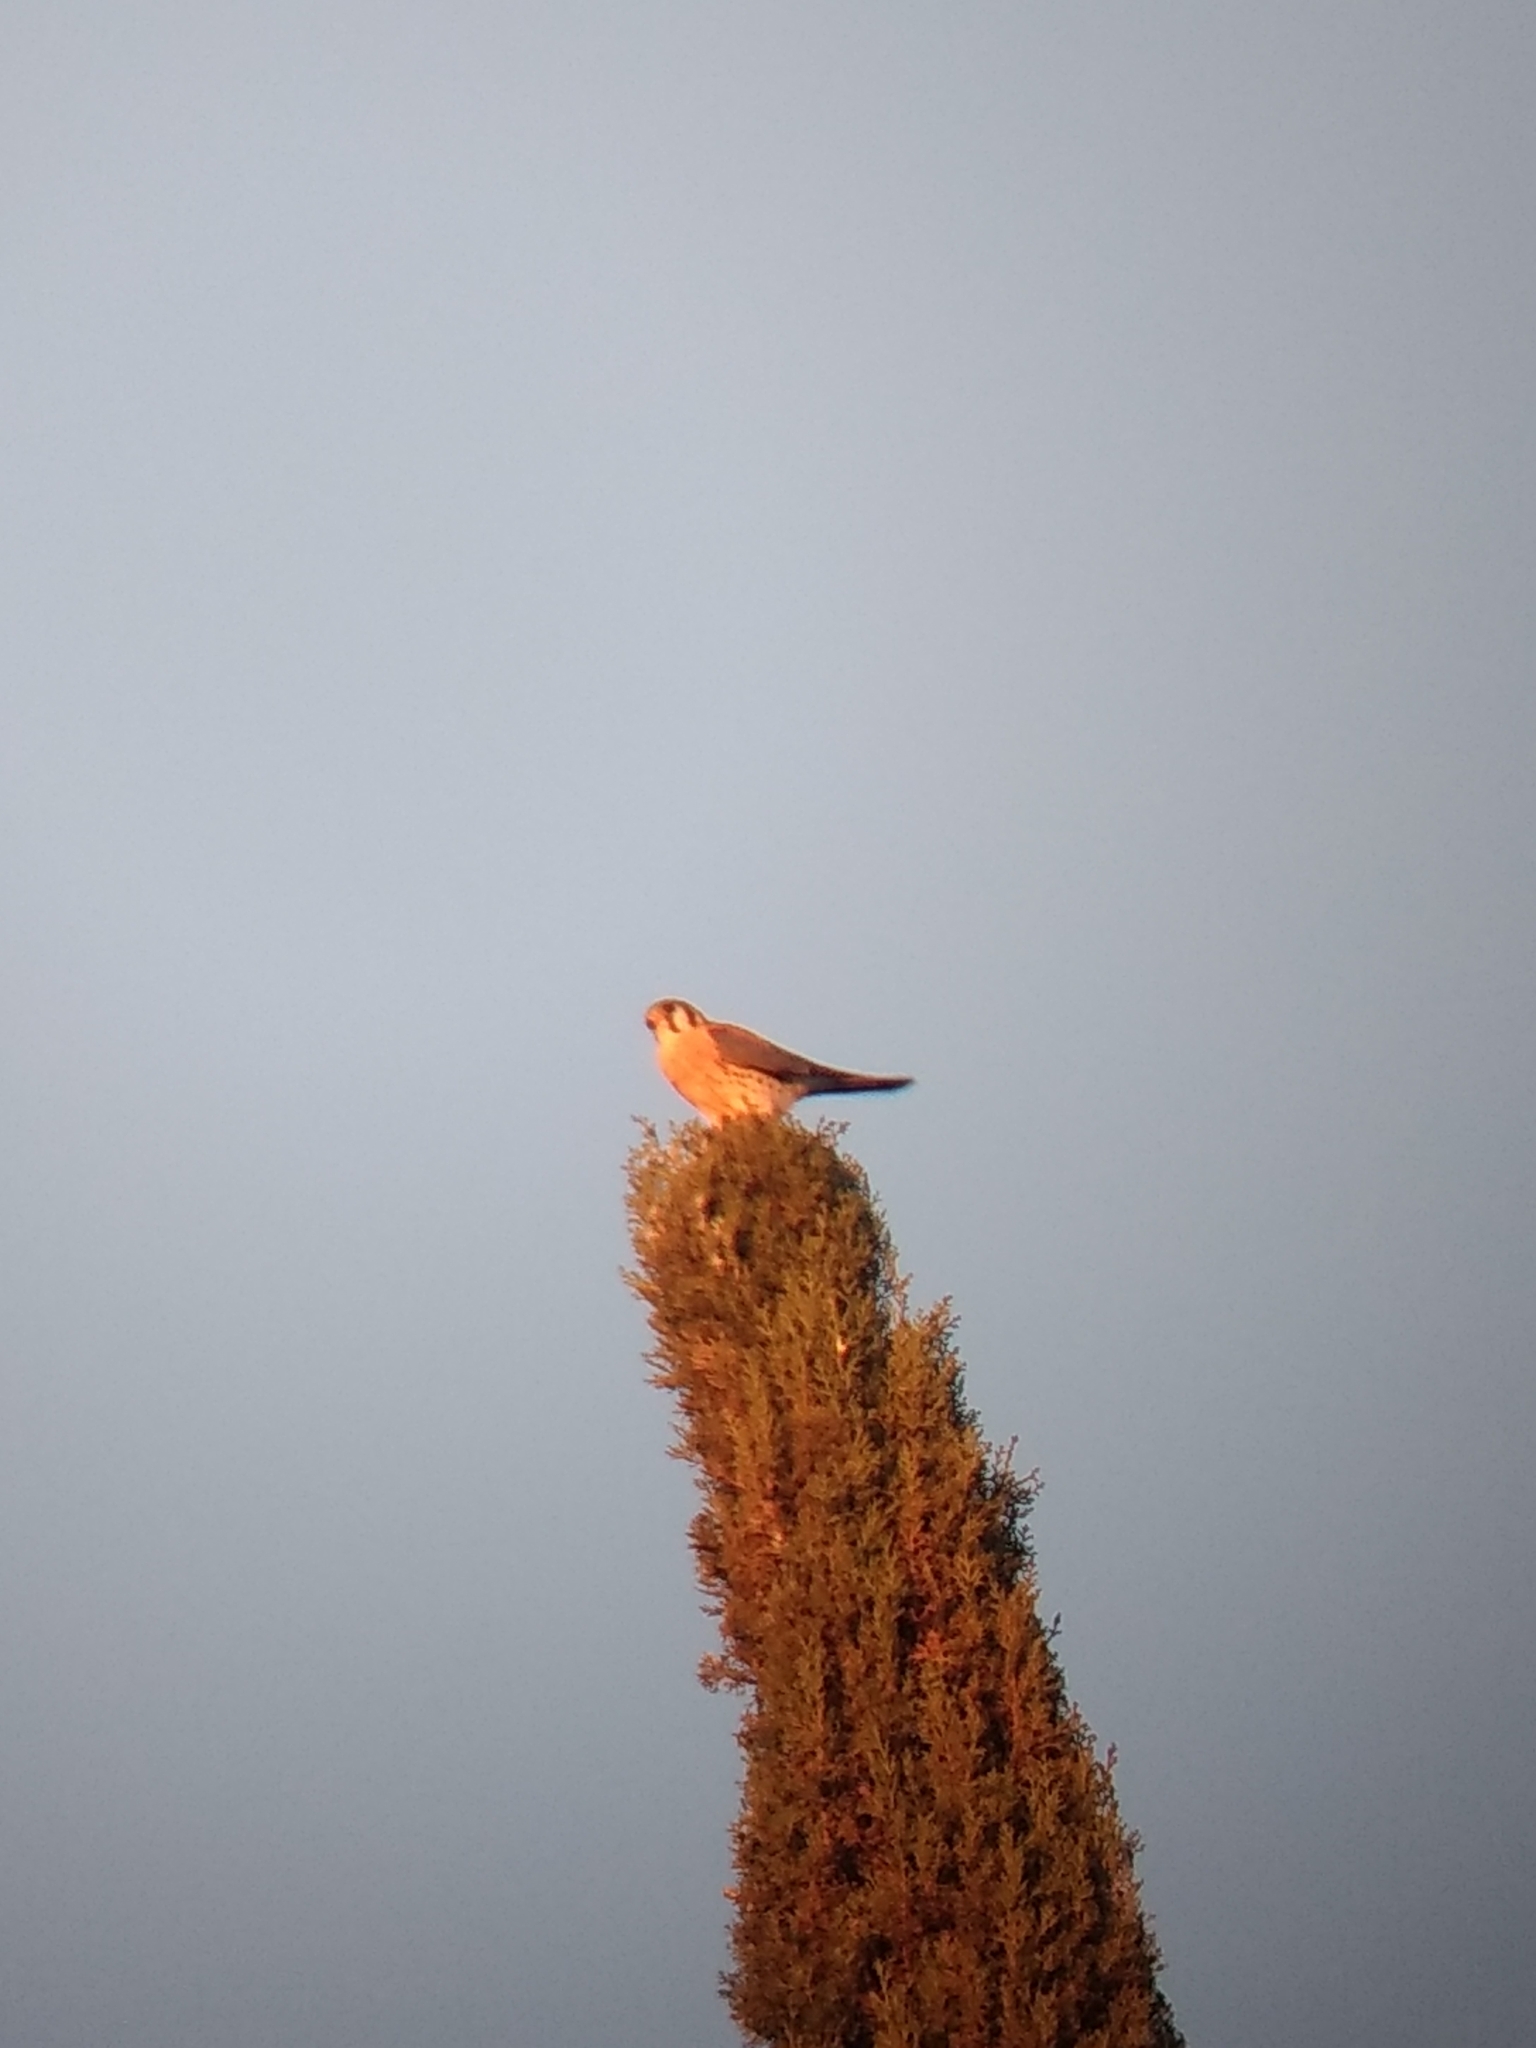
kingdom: Animalia
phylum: Chordata
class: Aves
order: Falconiformes
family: Falconidae
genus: Falco
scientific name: Falco sparverius
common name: American kestrel
